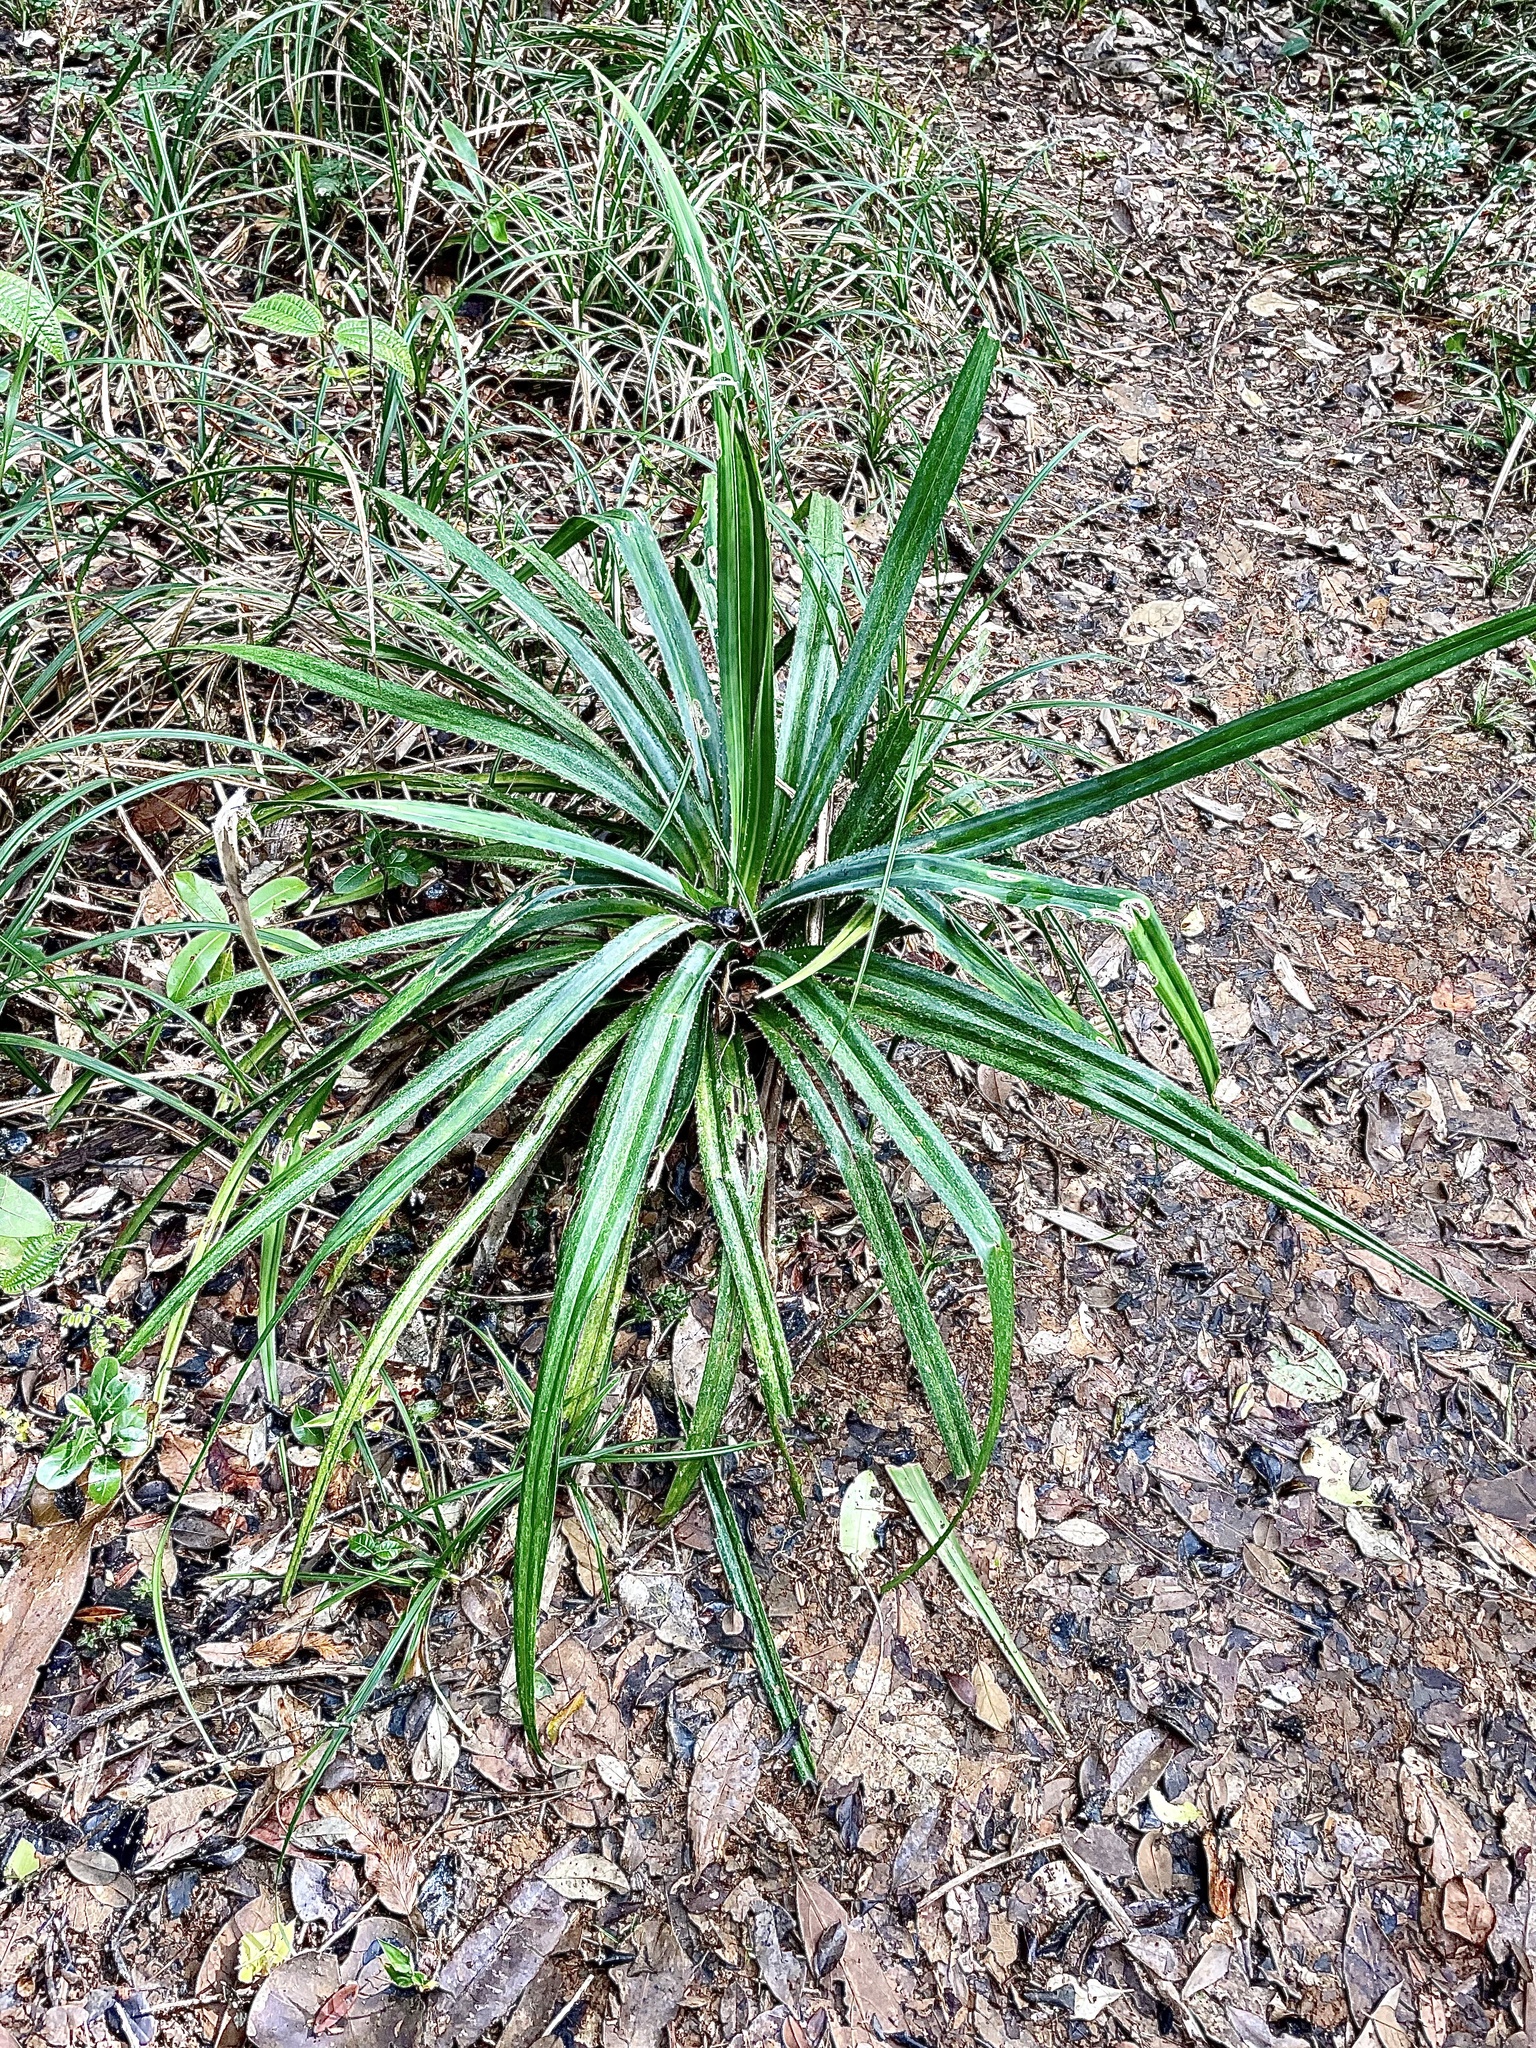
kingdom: Plantae
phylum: Tracheophyta
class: Liliopsida
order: Pandanales
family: Pandanaceae
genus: Pandanus
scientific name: Pandanus pulcher
